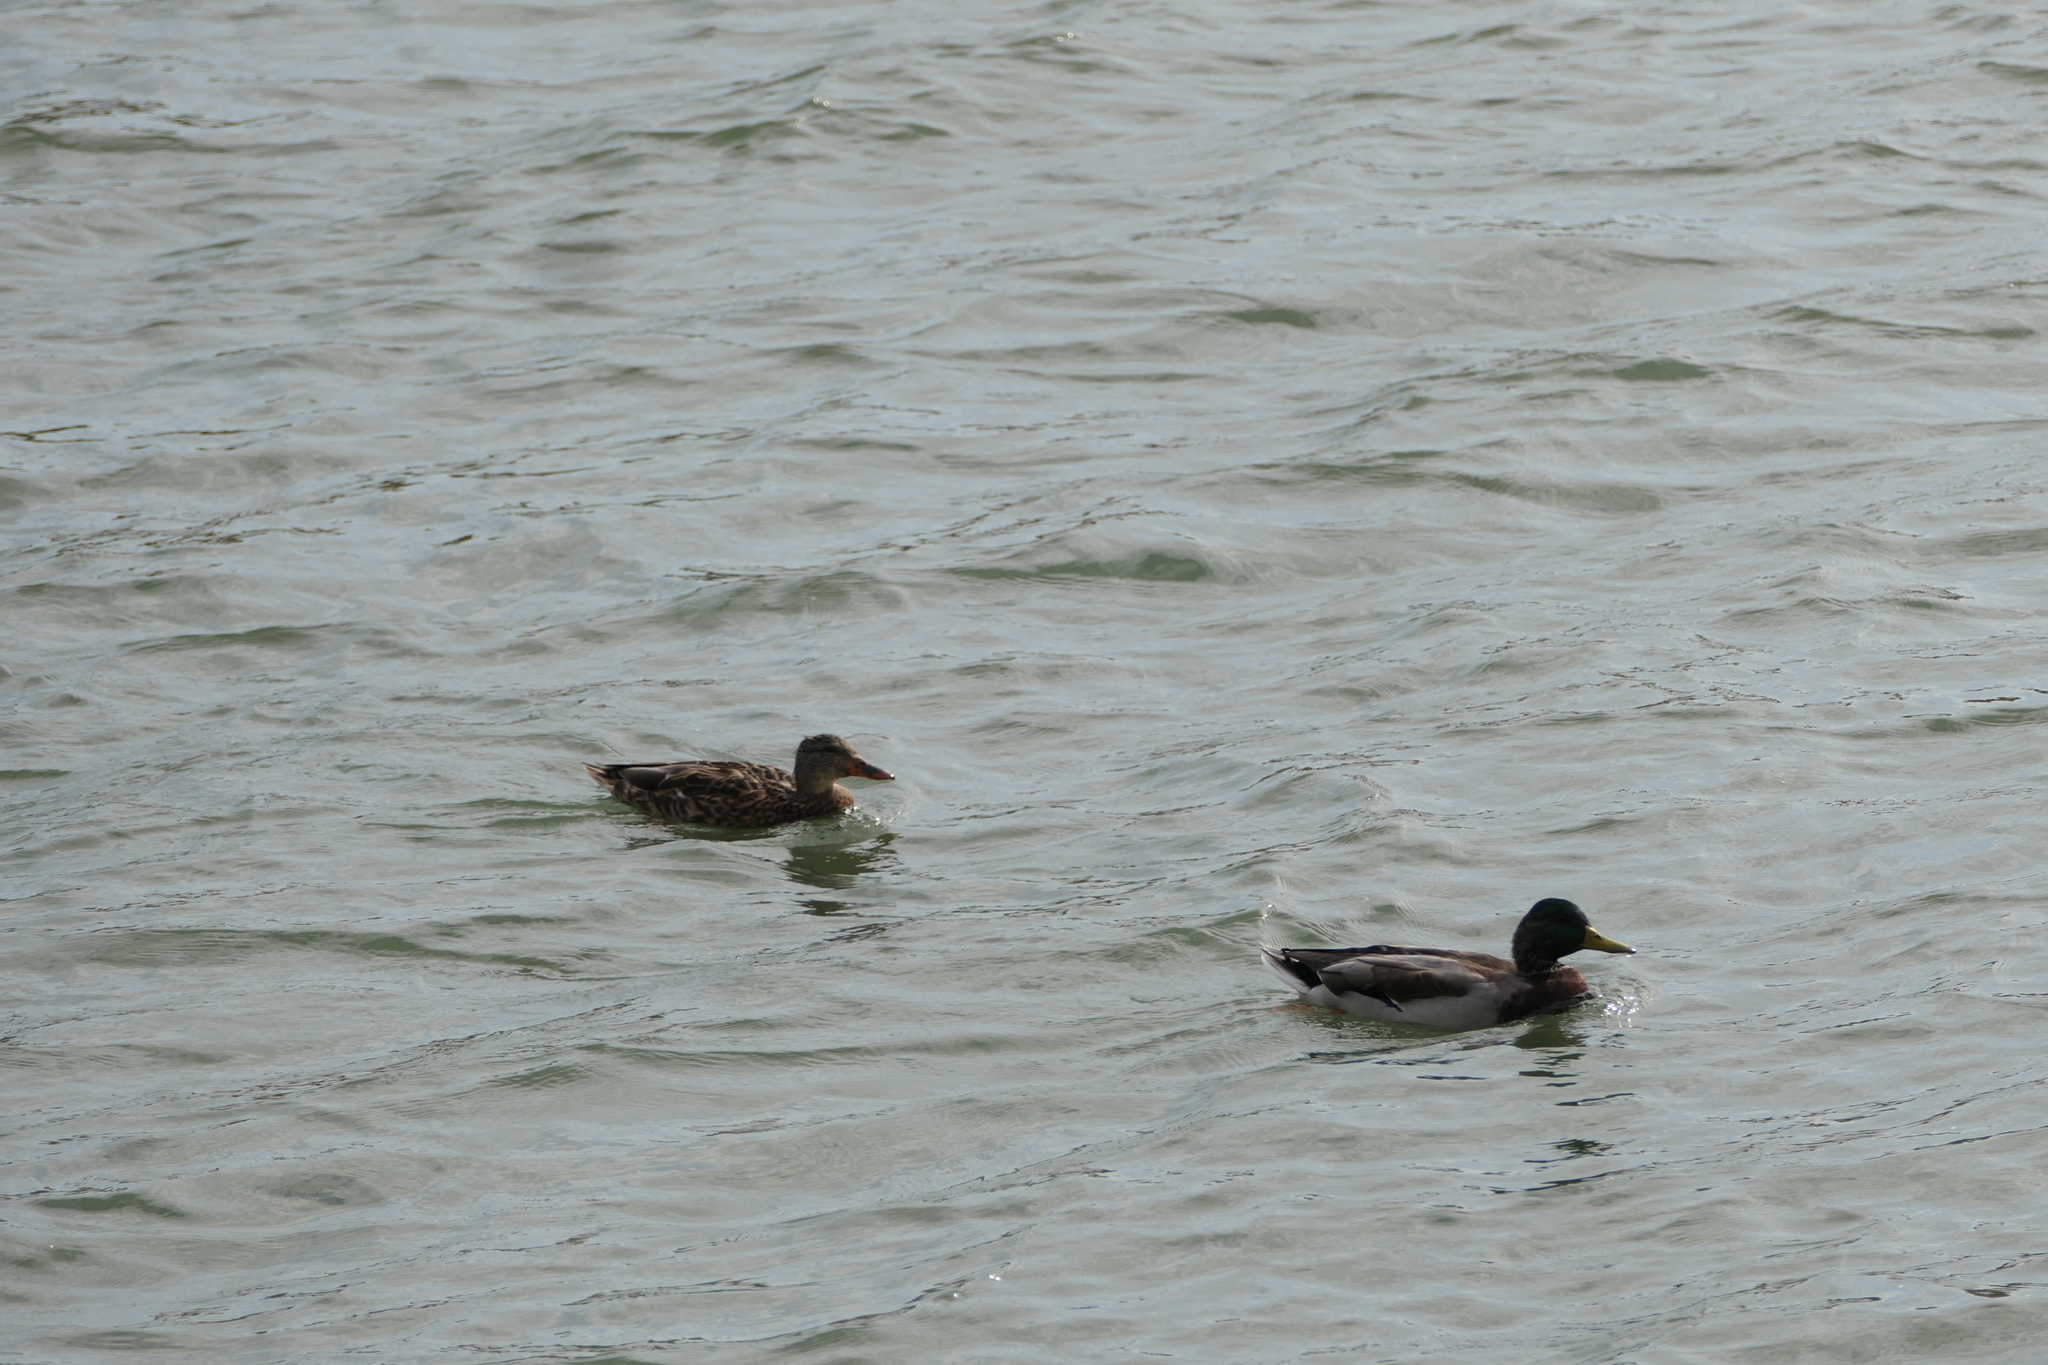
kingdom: Animalia
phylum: Chordata
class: Aves
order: Anseriformes
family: Anatidae
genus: Anas
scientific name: Anas platyrhynchos
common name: Mallard
